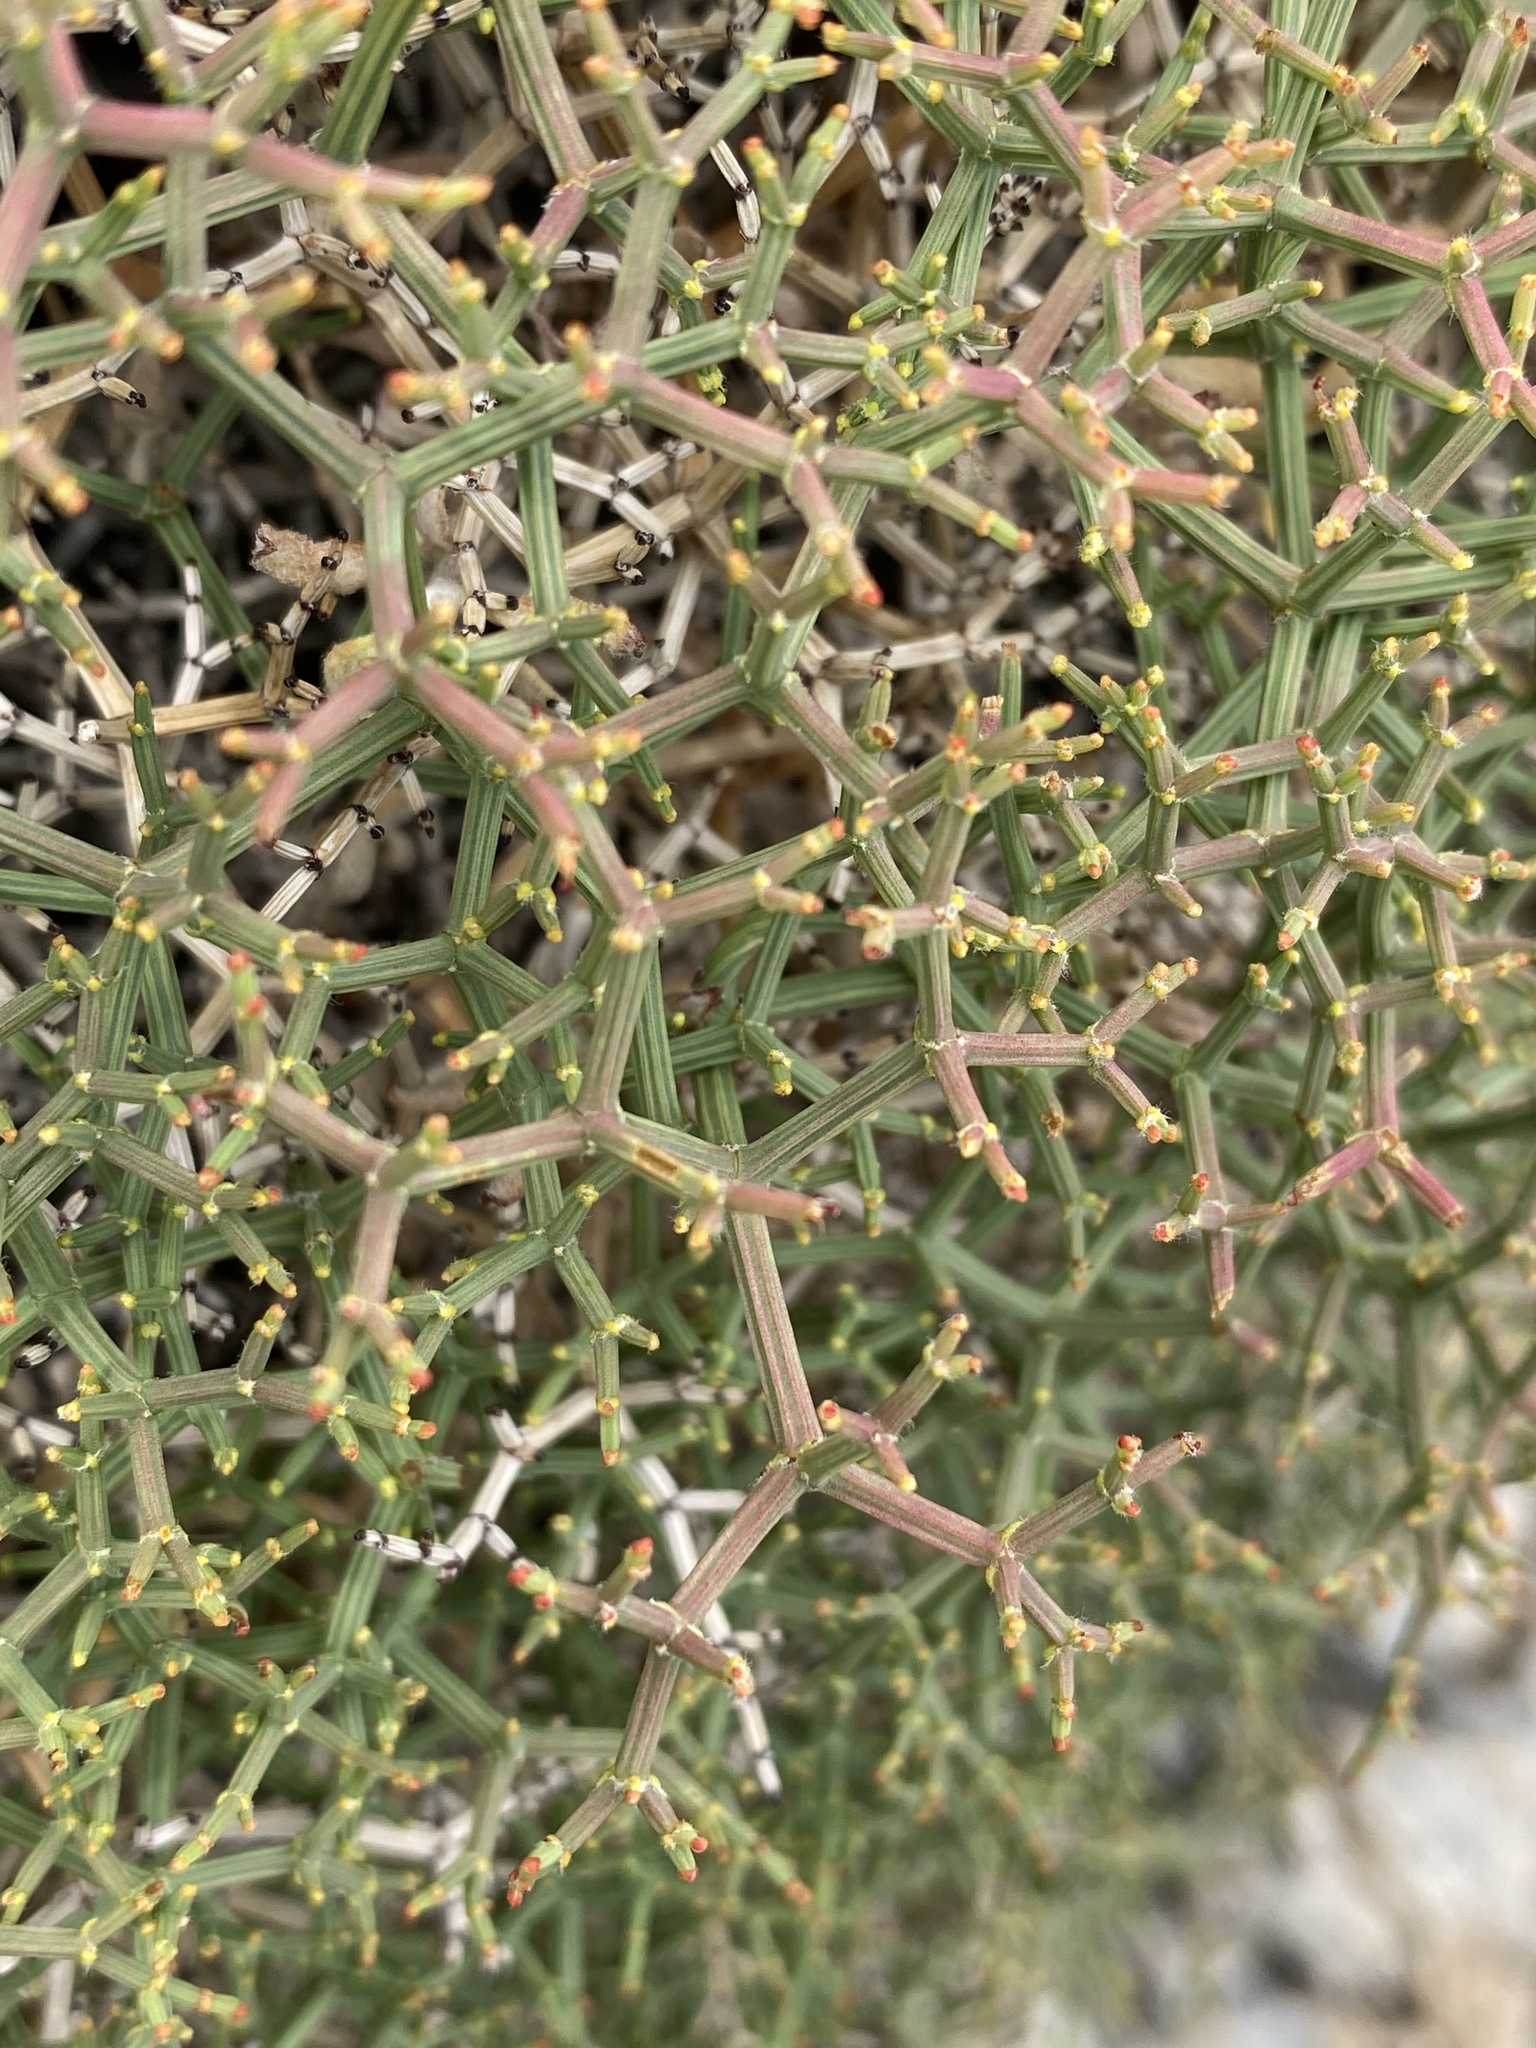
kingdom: Plantae
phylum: Tracheophyta
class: Magnoliopsida
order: Caryophyllales
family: Polygonaceae
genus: Eriogonum
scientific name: Eriogonum heermannii
